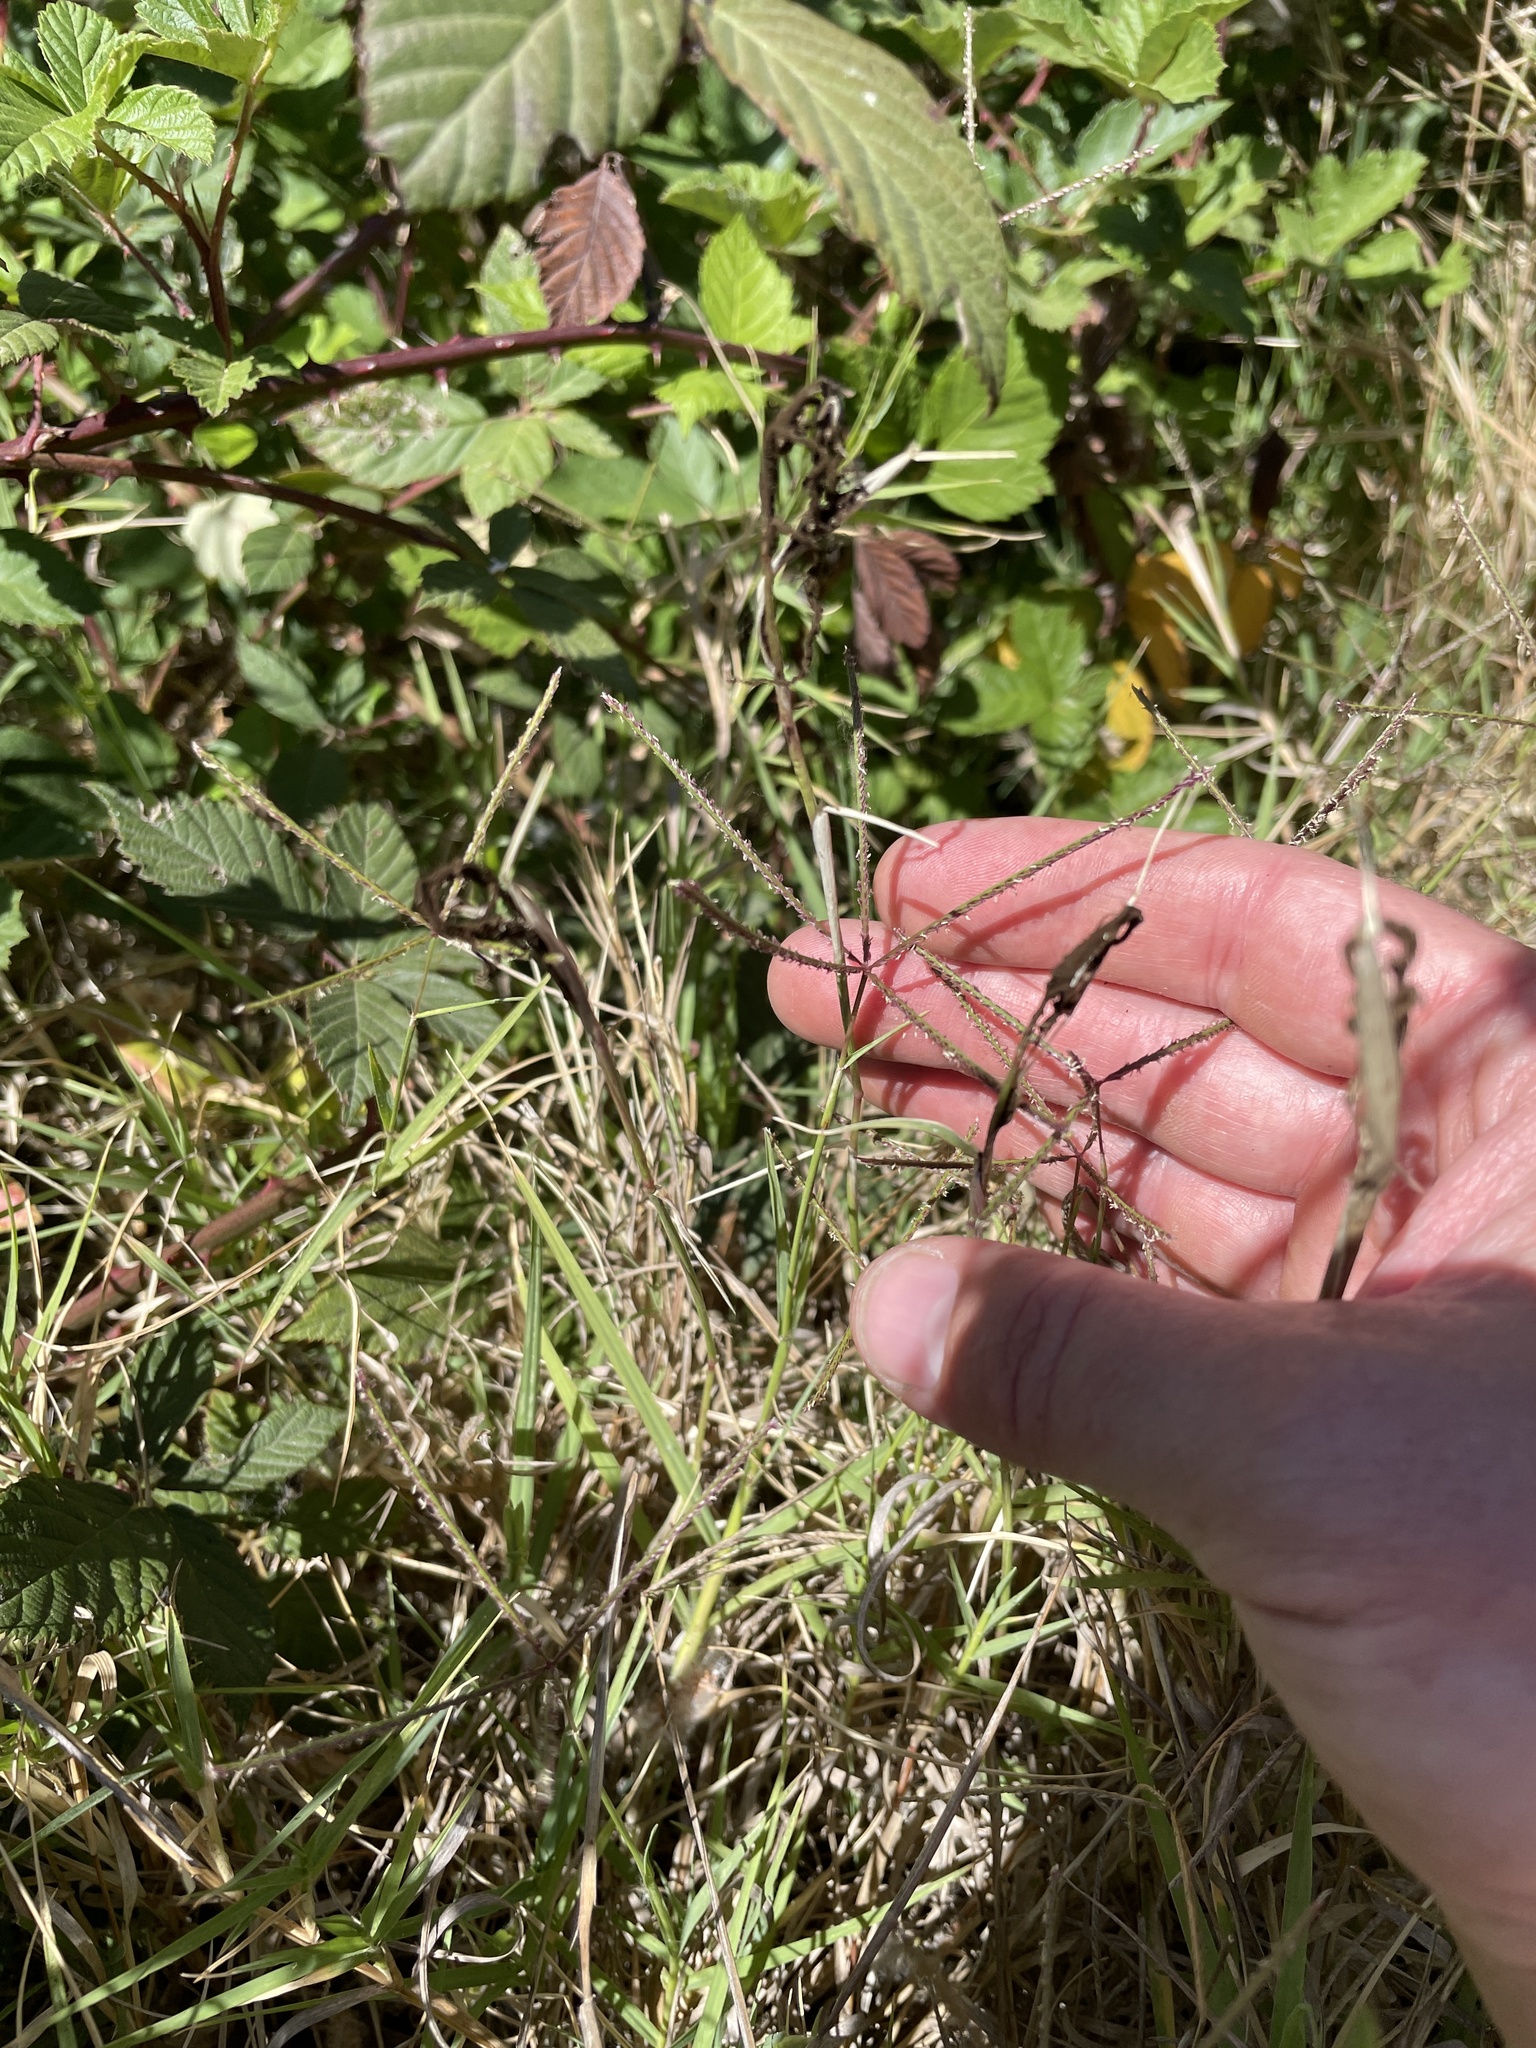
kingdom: Fungi
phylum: Basidiomycota
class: Ustilaginomycetes
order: Ustilaginales
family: Ustilaginaceae
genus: Ustilago
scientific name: Ustilago cynodontis
